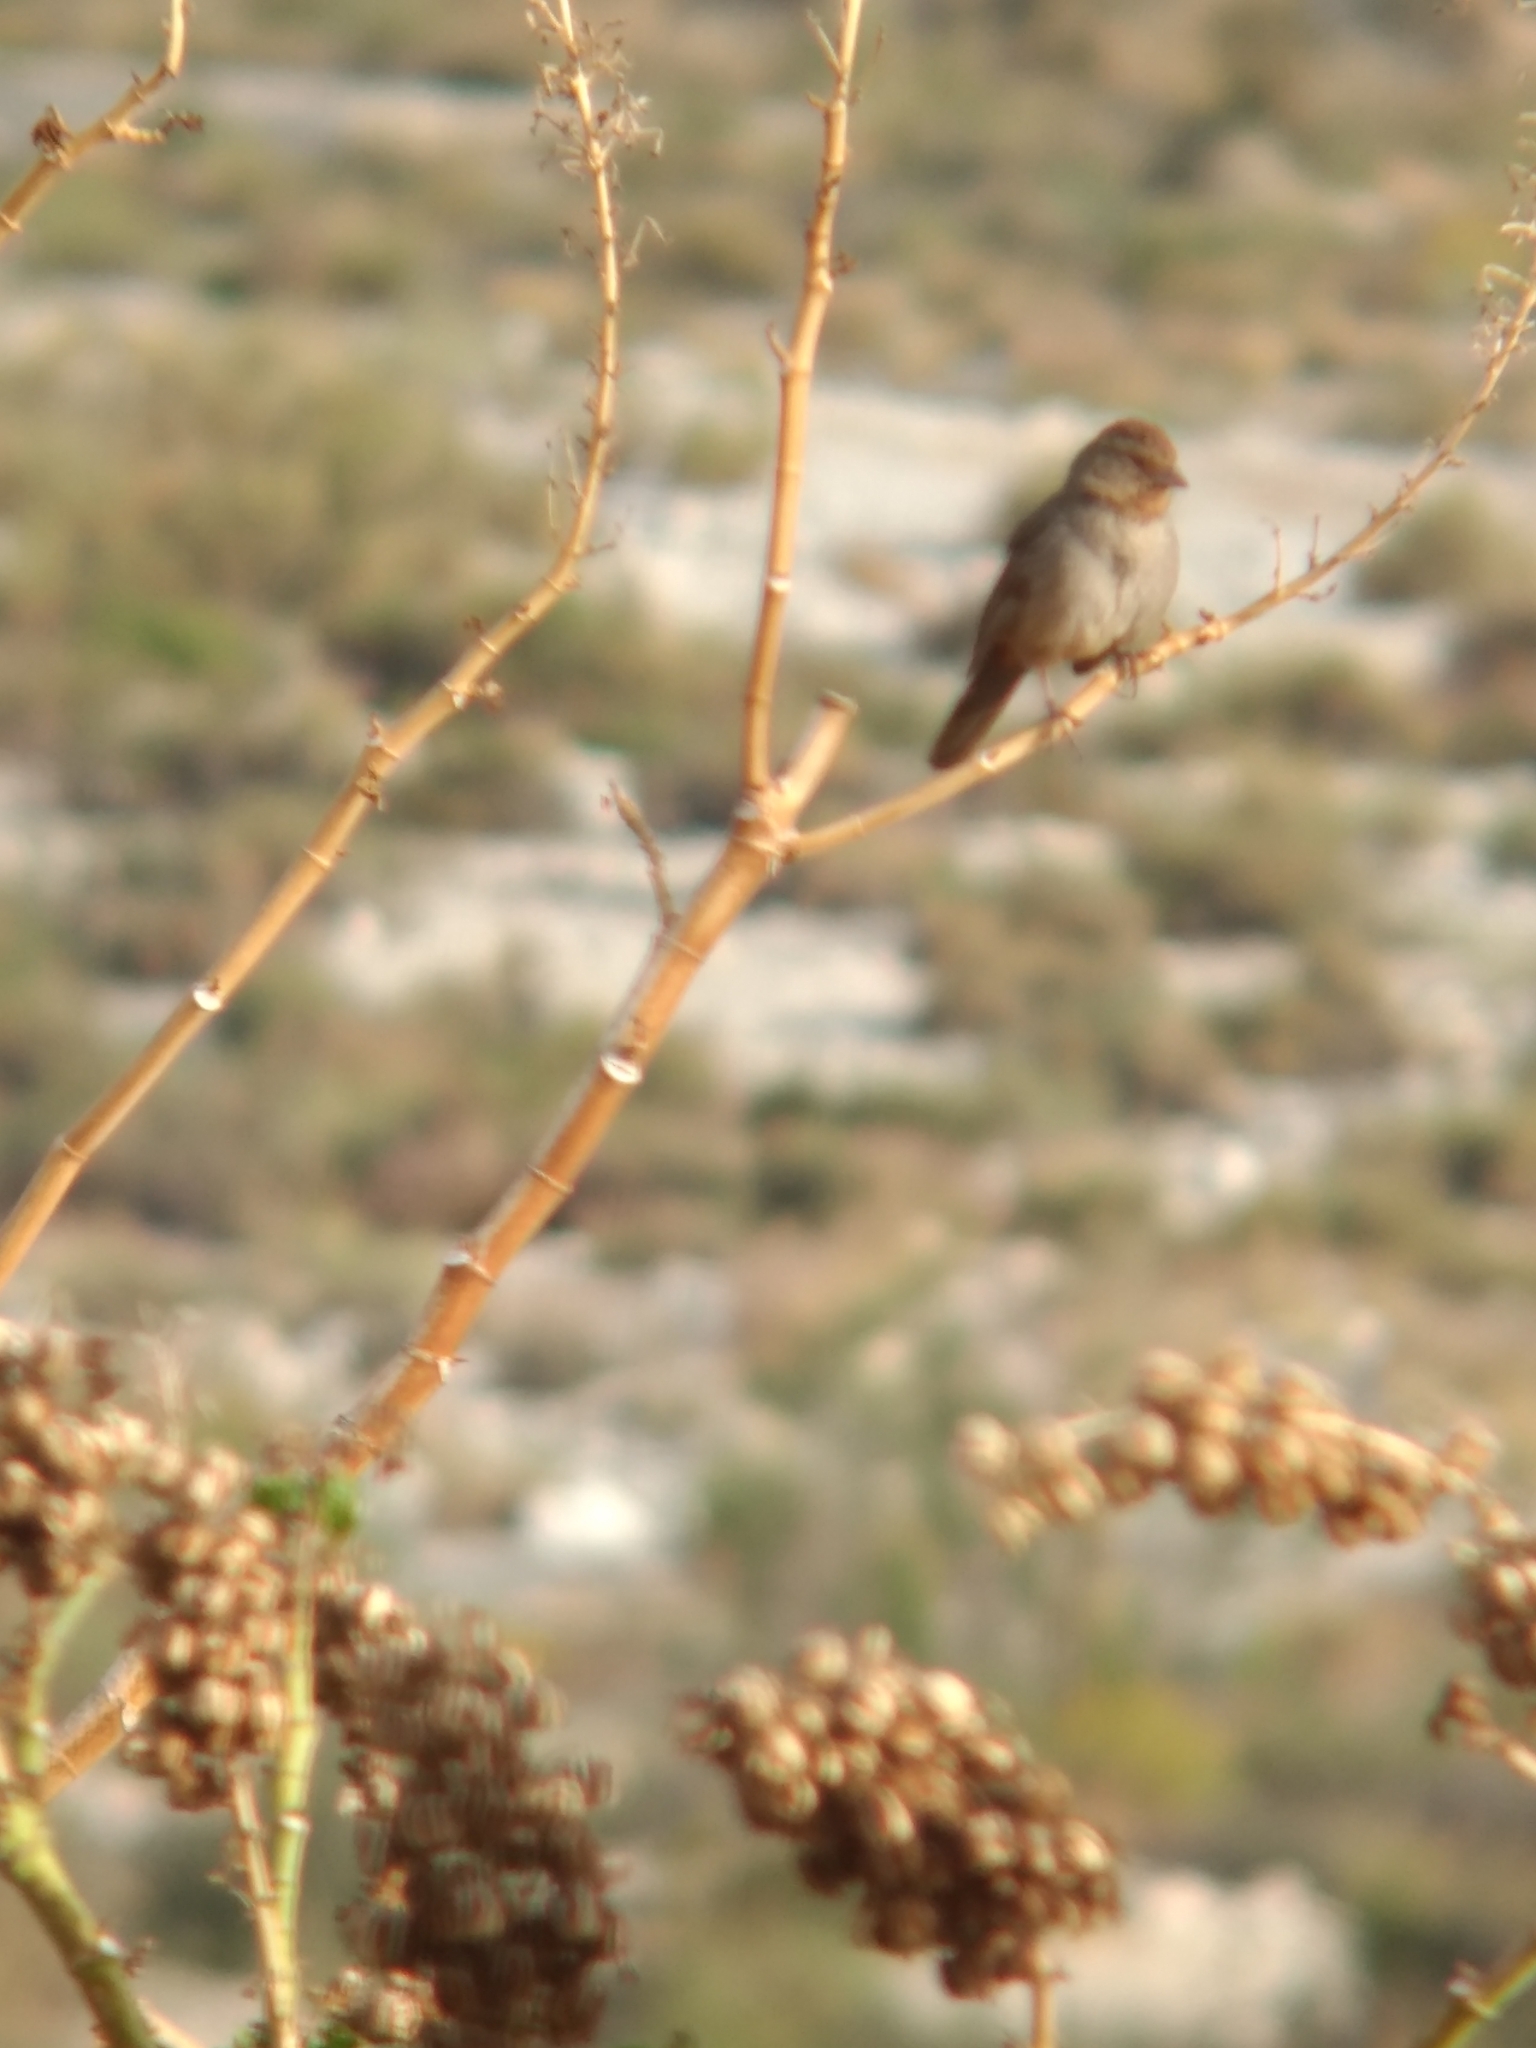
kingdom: Animalia
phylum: Chordata
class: Aves
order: Passeriformes
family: Passerellidae
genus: Melozone
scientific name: Melozone crissalis
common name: California towhee
